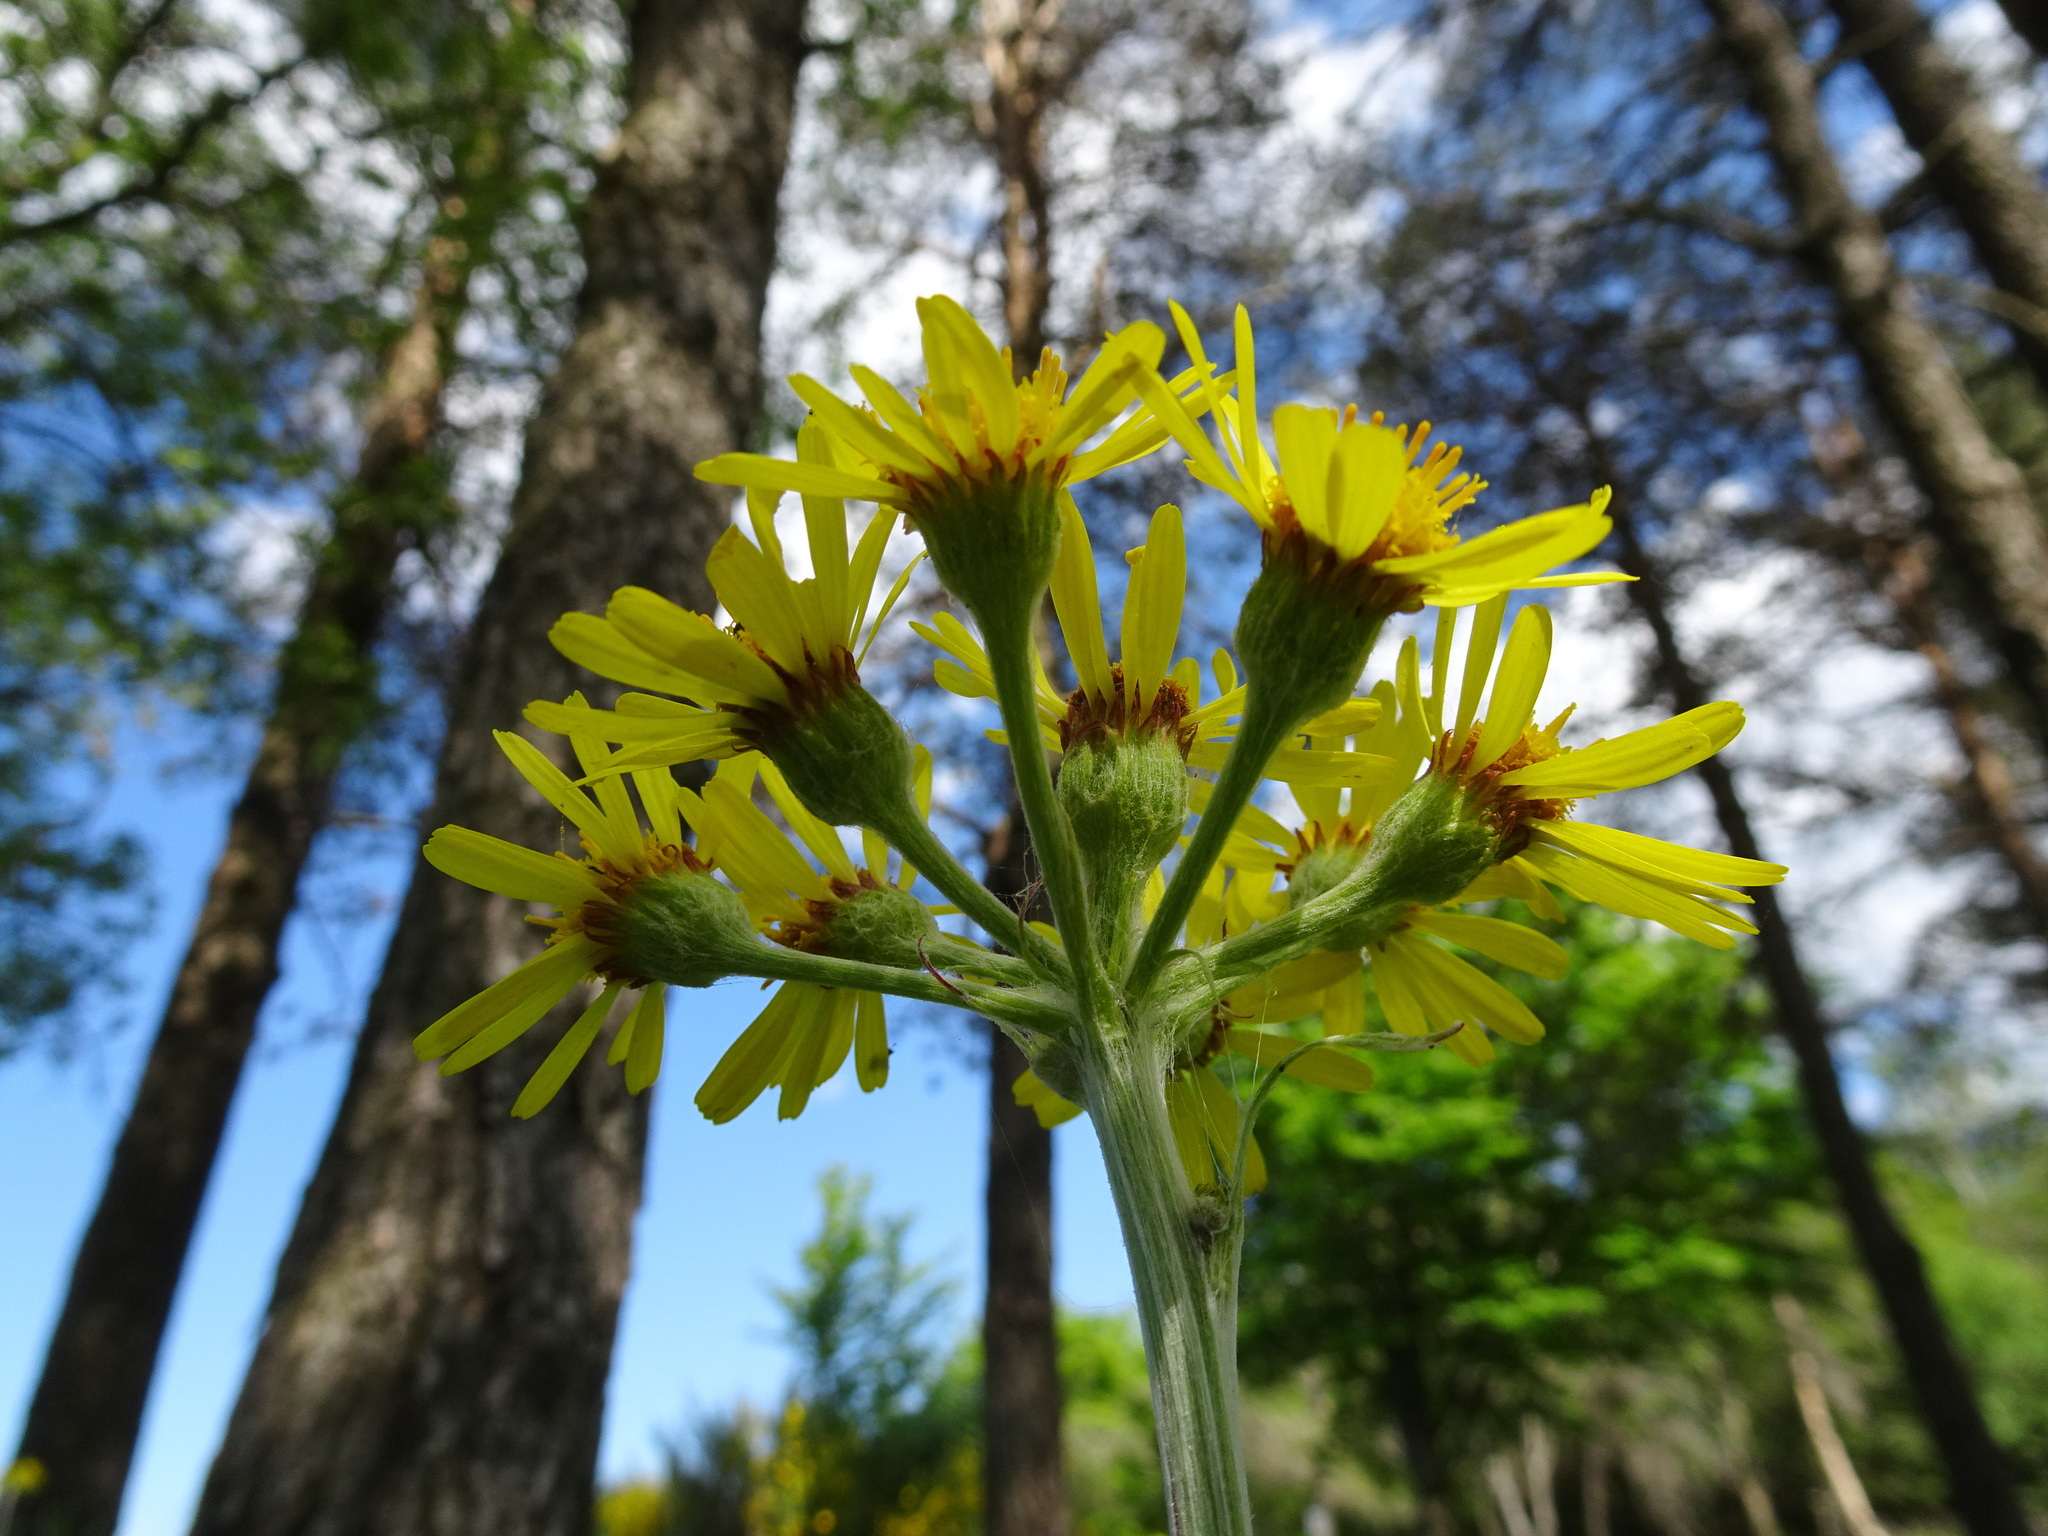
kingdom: Plantae
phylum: Tracheophyta
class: Magnoliopsida
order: Asterales
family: Asteraceae
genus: Tephroseris
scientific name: Tephroseris helenitis
